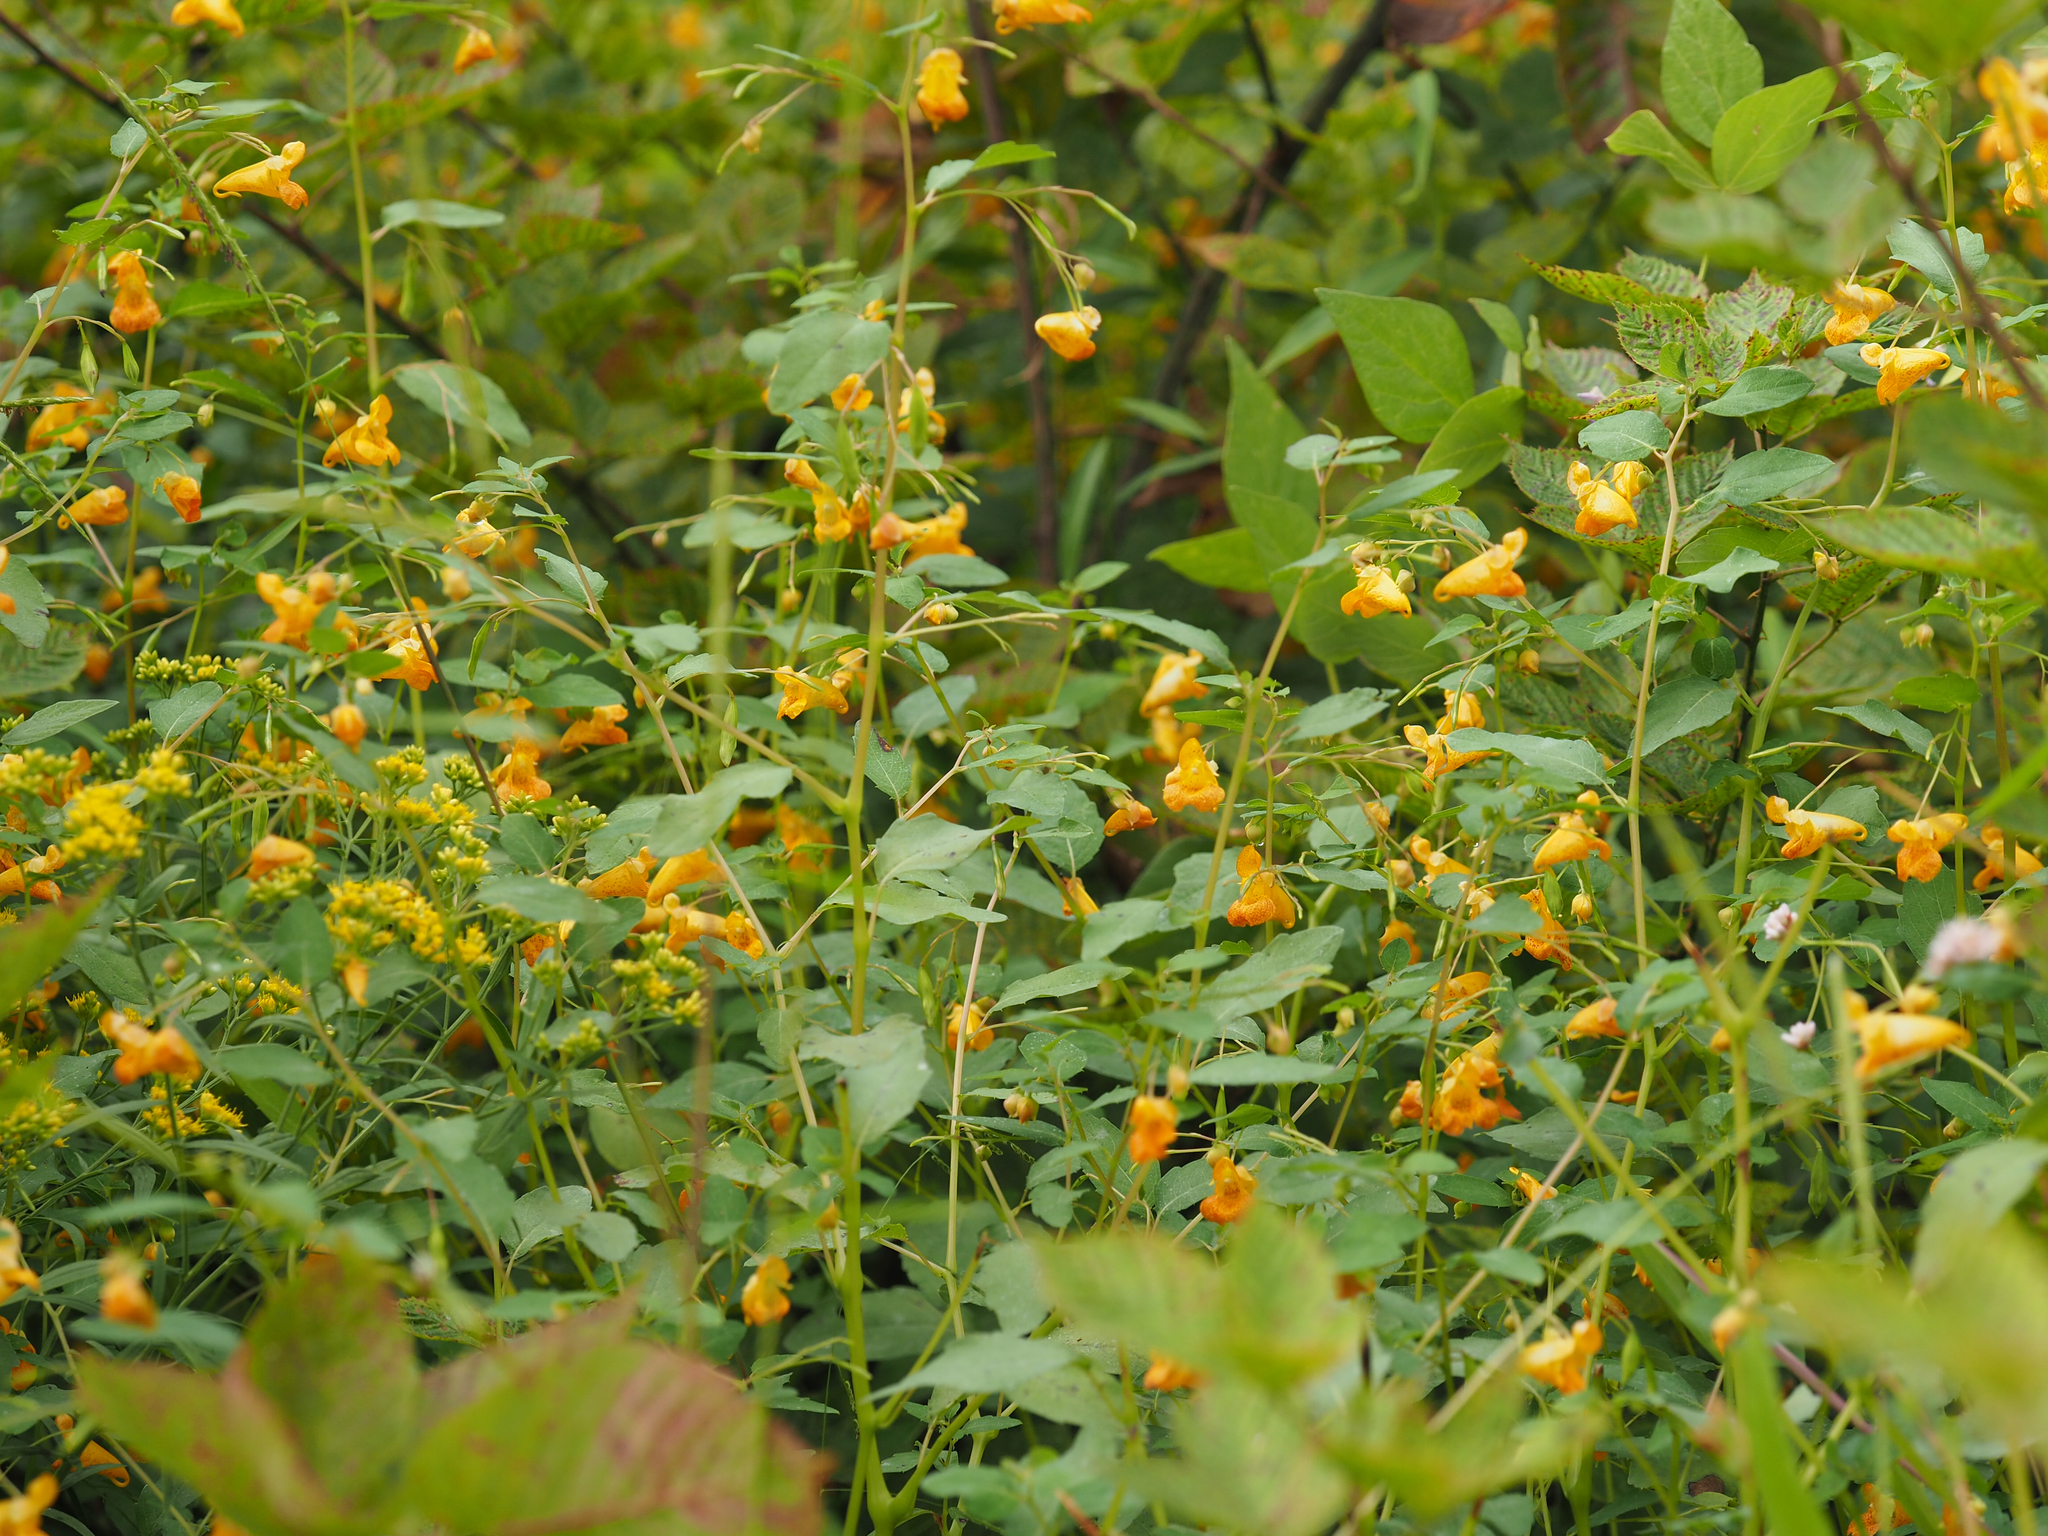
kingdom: Plantae
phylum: Tracheophyta
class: Magnoliopsida
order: Ericales
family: Balsaminaceae
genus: Impatiens
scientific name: Impatiens capensis
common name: Orange balsam
